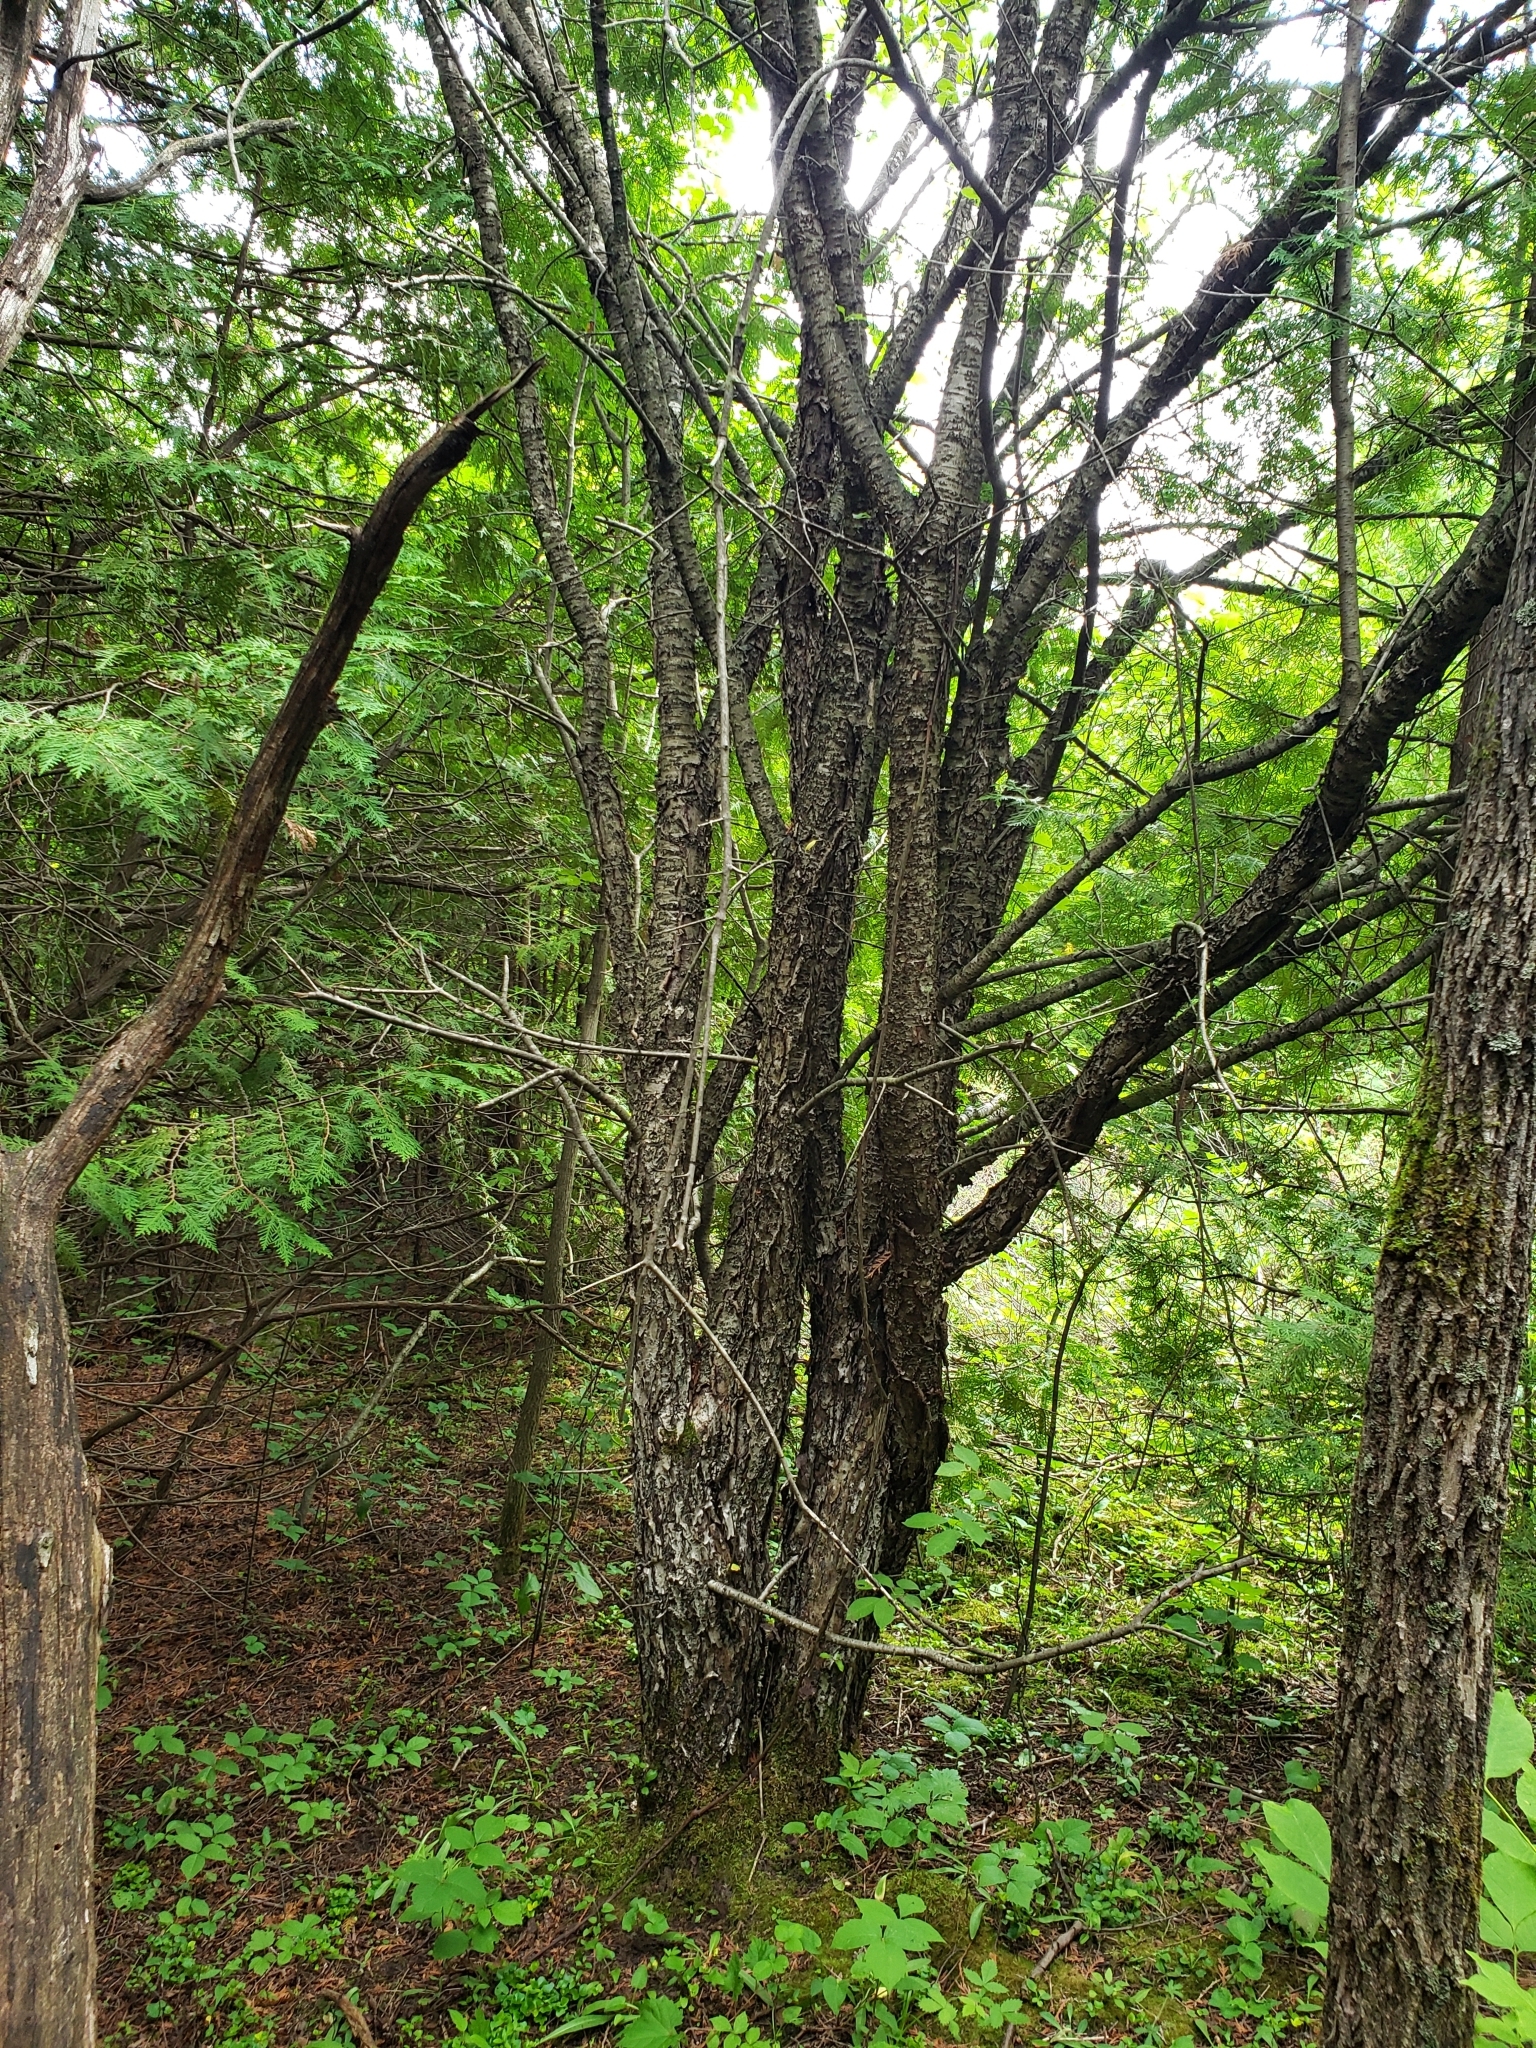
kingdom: Plantae
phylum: Tracheophyta
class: Magnoliopsida
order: Rosales
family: Rhamnaceae
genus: Rhamnus
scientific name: Rhamnus cathartica
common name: Common buckthorn
